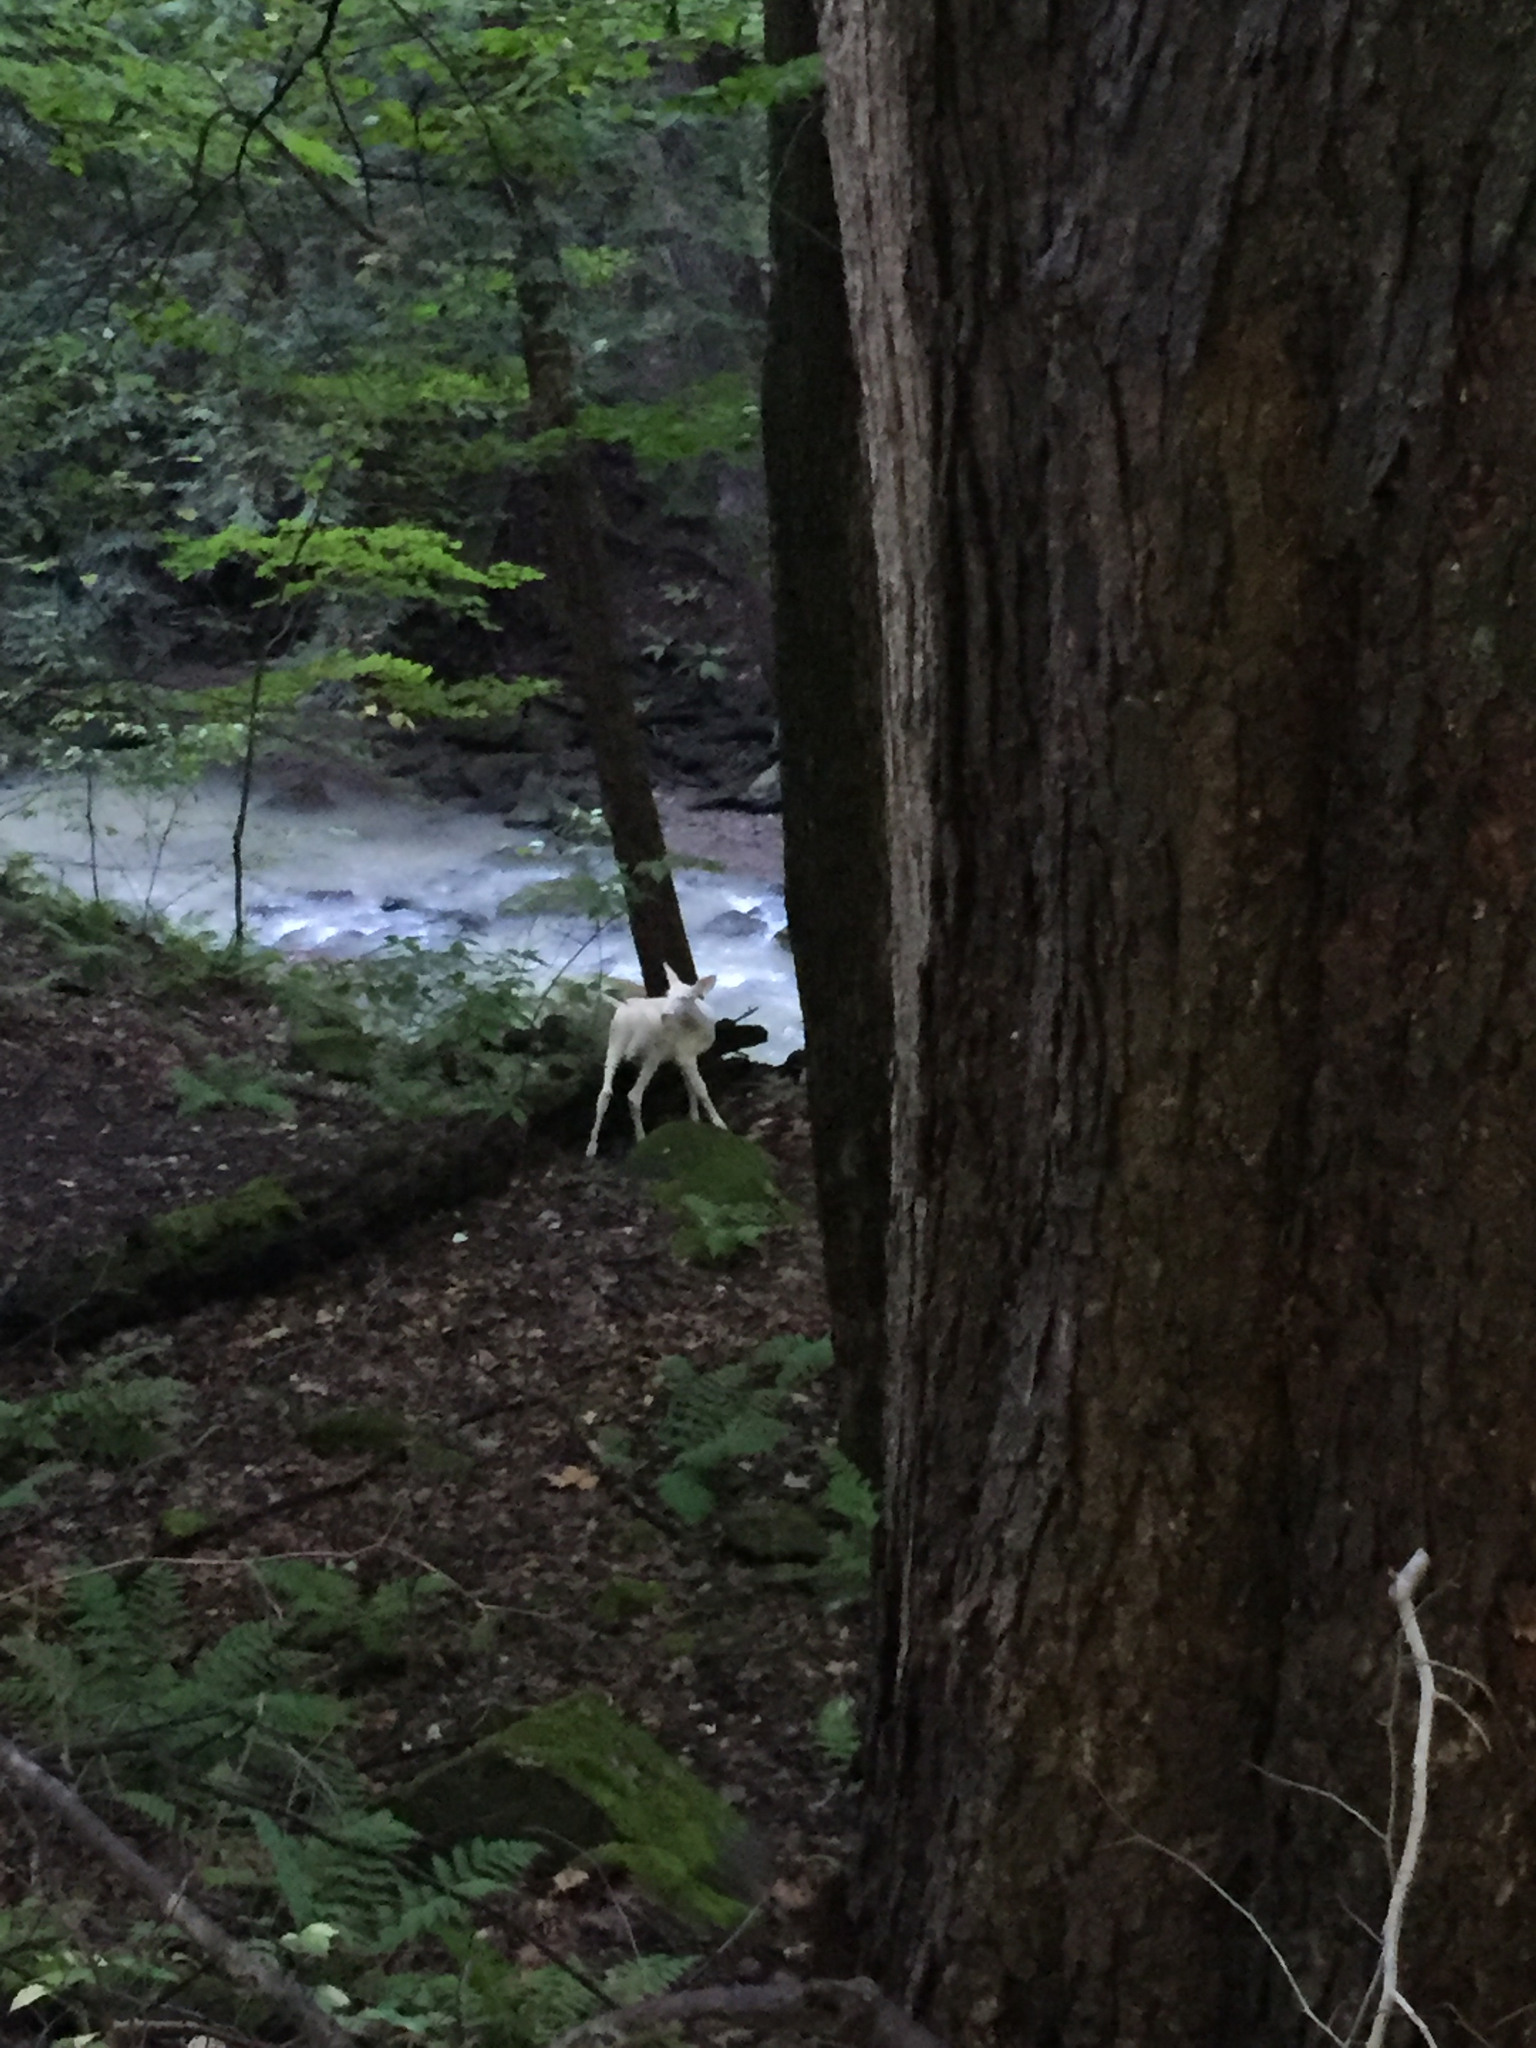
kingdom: Animalia
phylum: Chordata
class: Mammalia
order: Artiodactyla
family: Cervidae
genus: Odocoileus
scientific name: Odocoileus virginianus
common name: White-tailed deer
